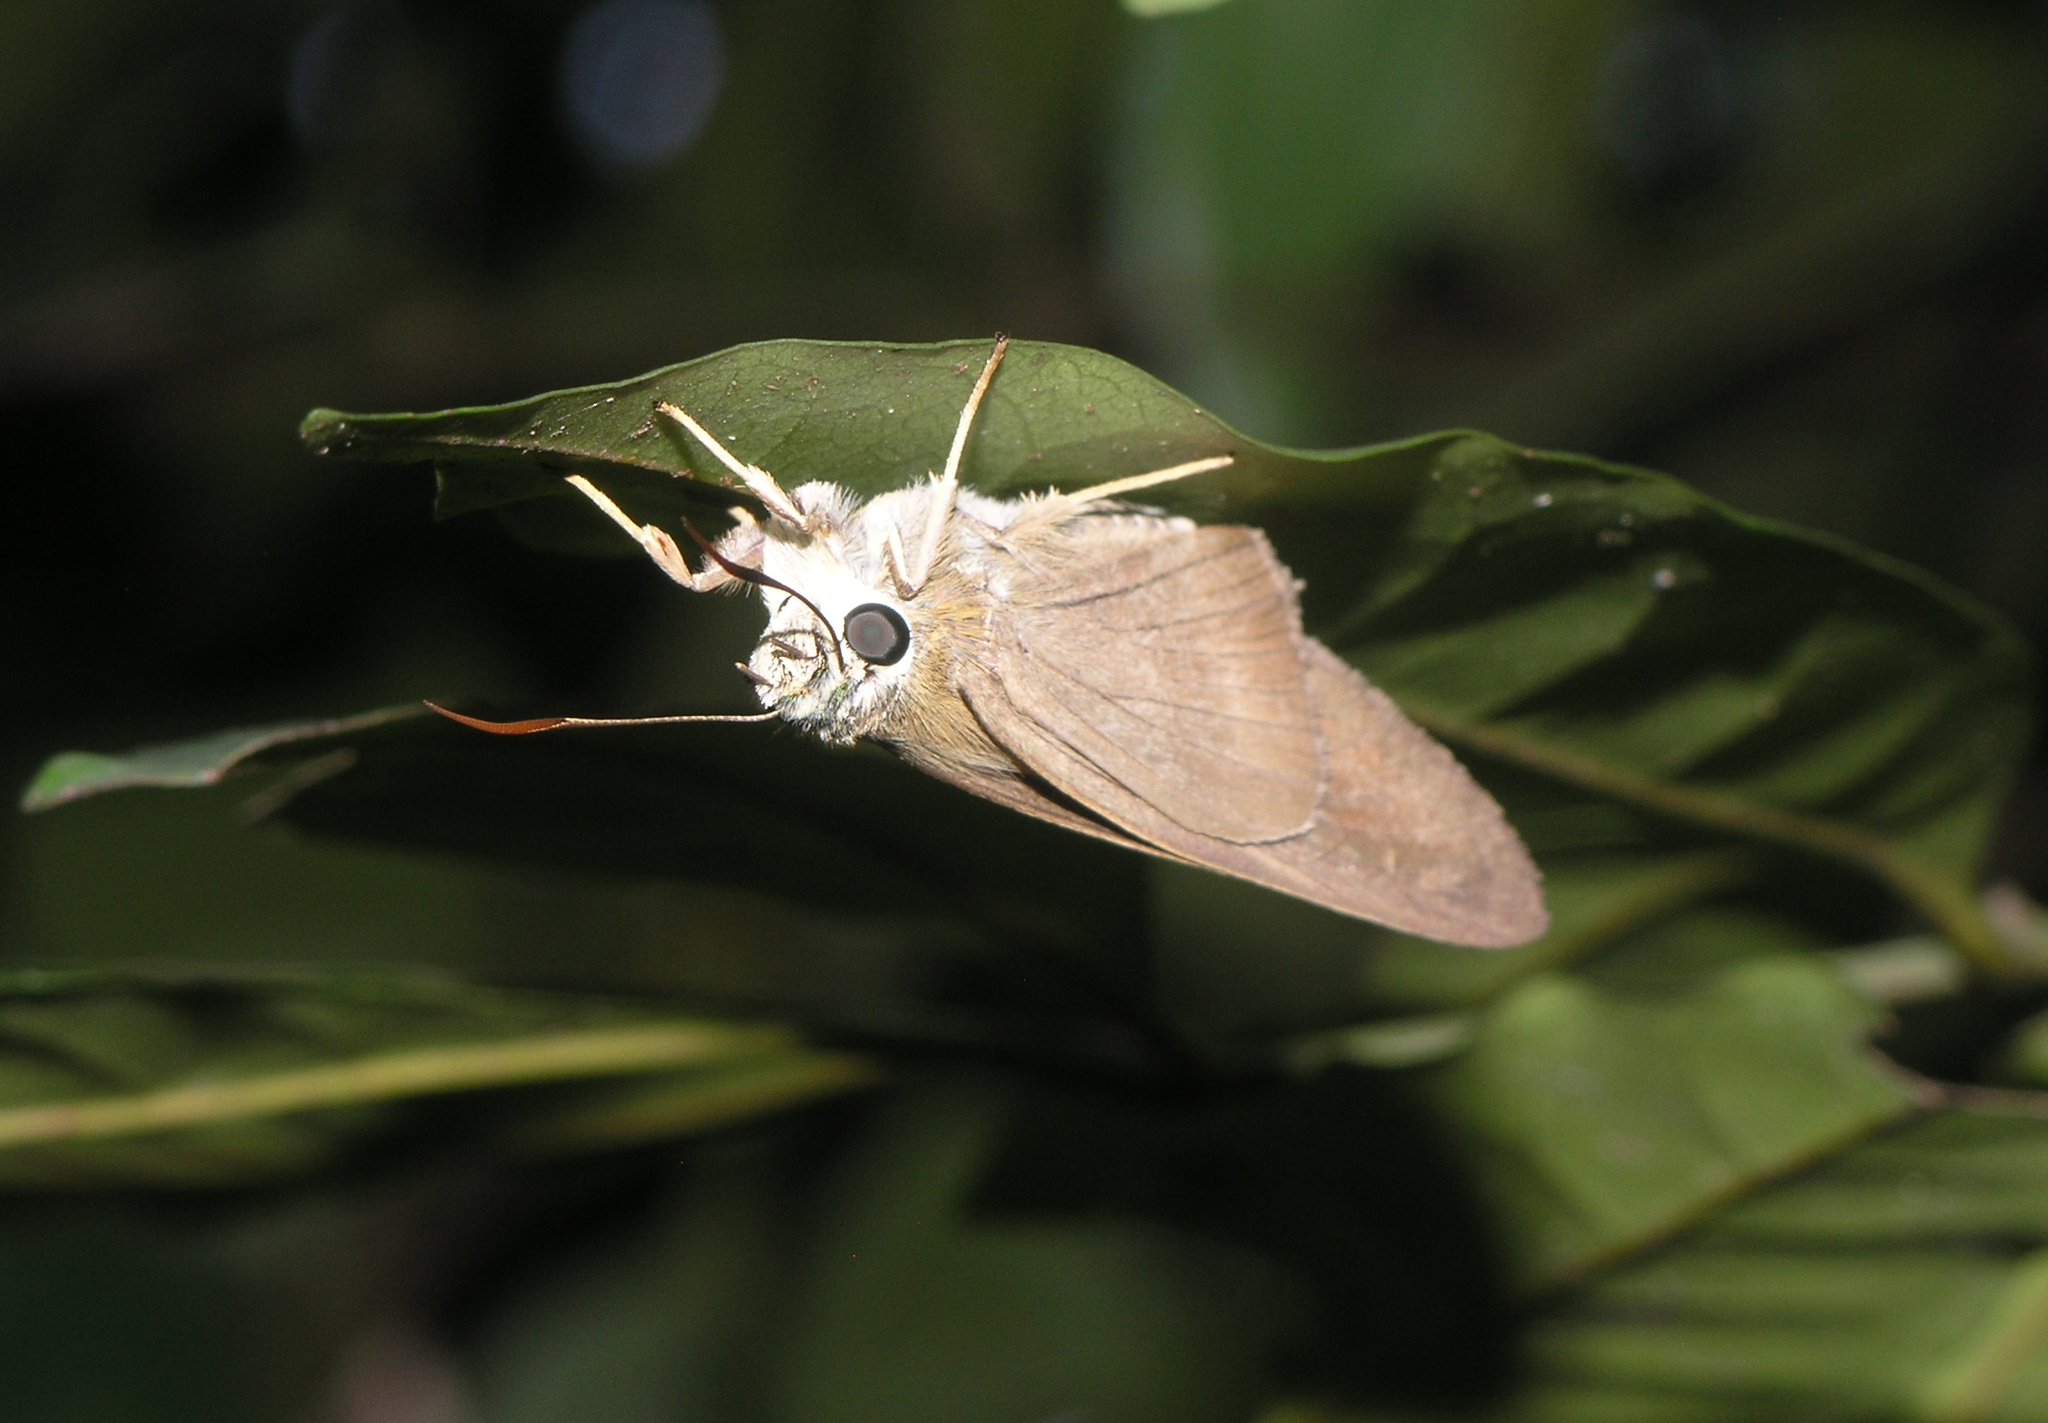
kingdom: Animalia
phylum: Arthropoda
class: Insecta
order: Lepidoptera
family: Hesperiidae
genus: Badamia
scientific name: Badamia exclamationis
